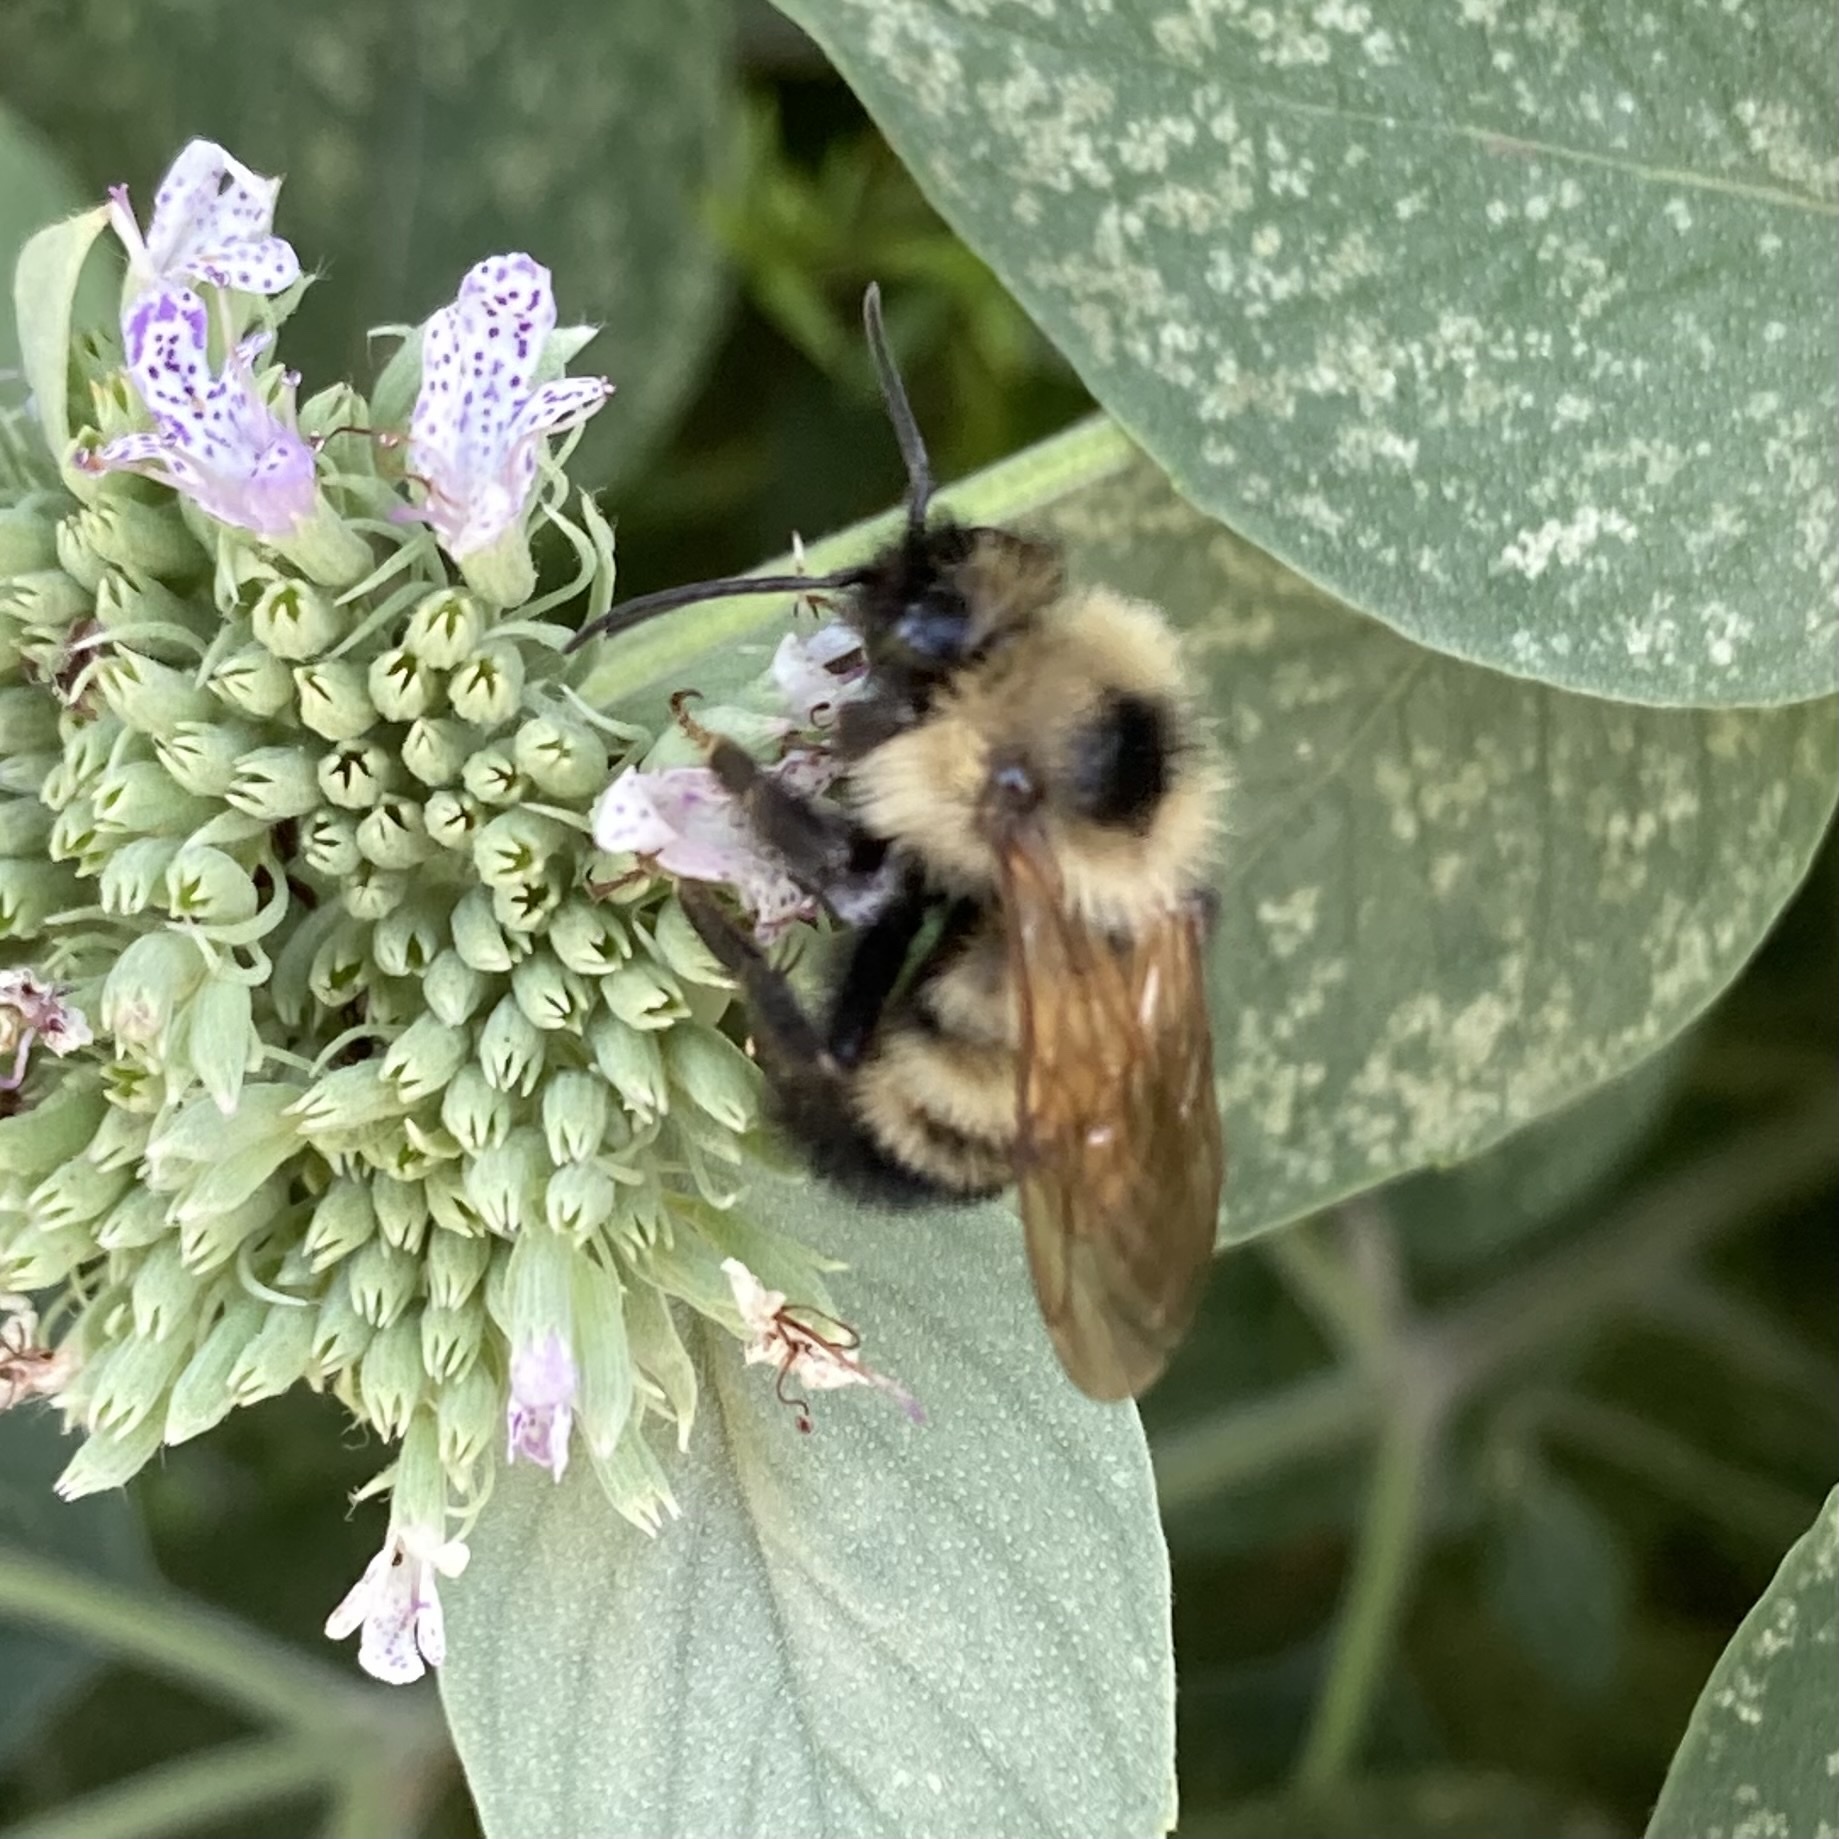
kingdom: Animalia
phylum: Arthropoda
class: Insecta
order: Hymenoptera
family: Apidae
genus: Bombus
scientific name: Bombus citrinus
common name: Lemon cuckoo bumble bee
